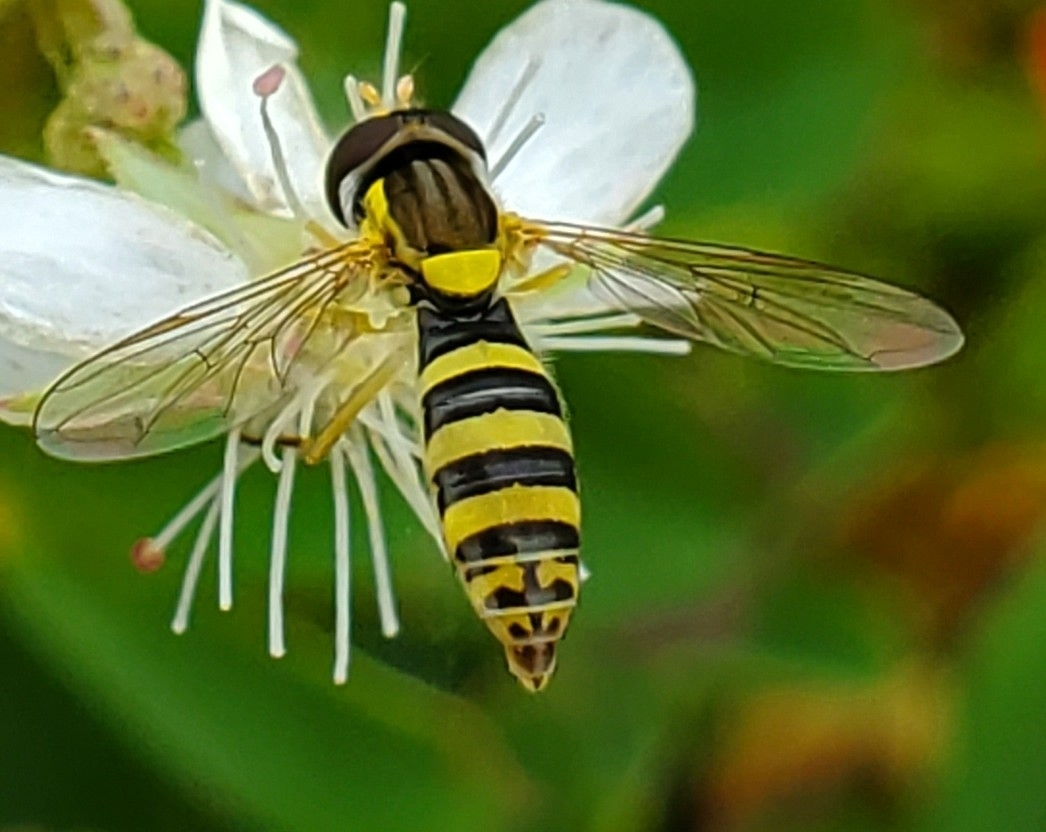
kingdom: Animalia
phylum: Arthropoda
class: Insecta
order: Diptera
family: Syrphidae
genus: Sphaerophoria
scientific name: Sphaerophoria
